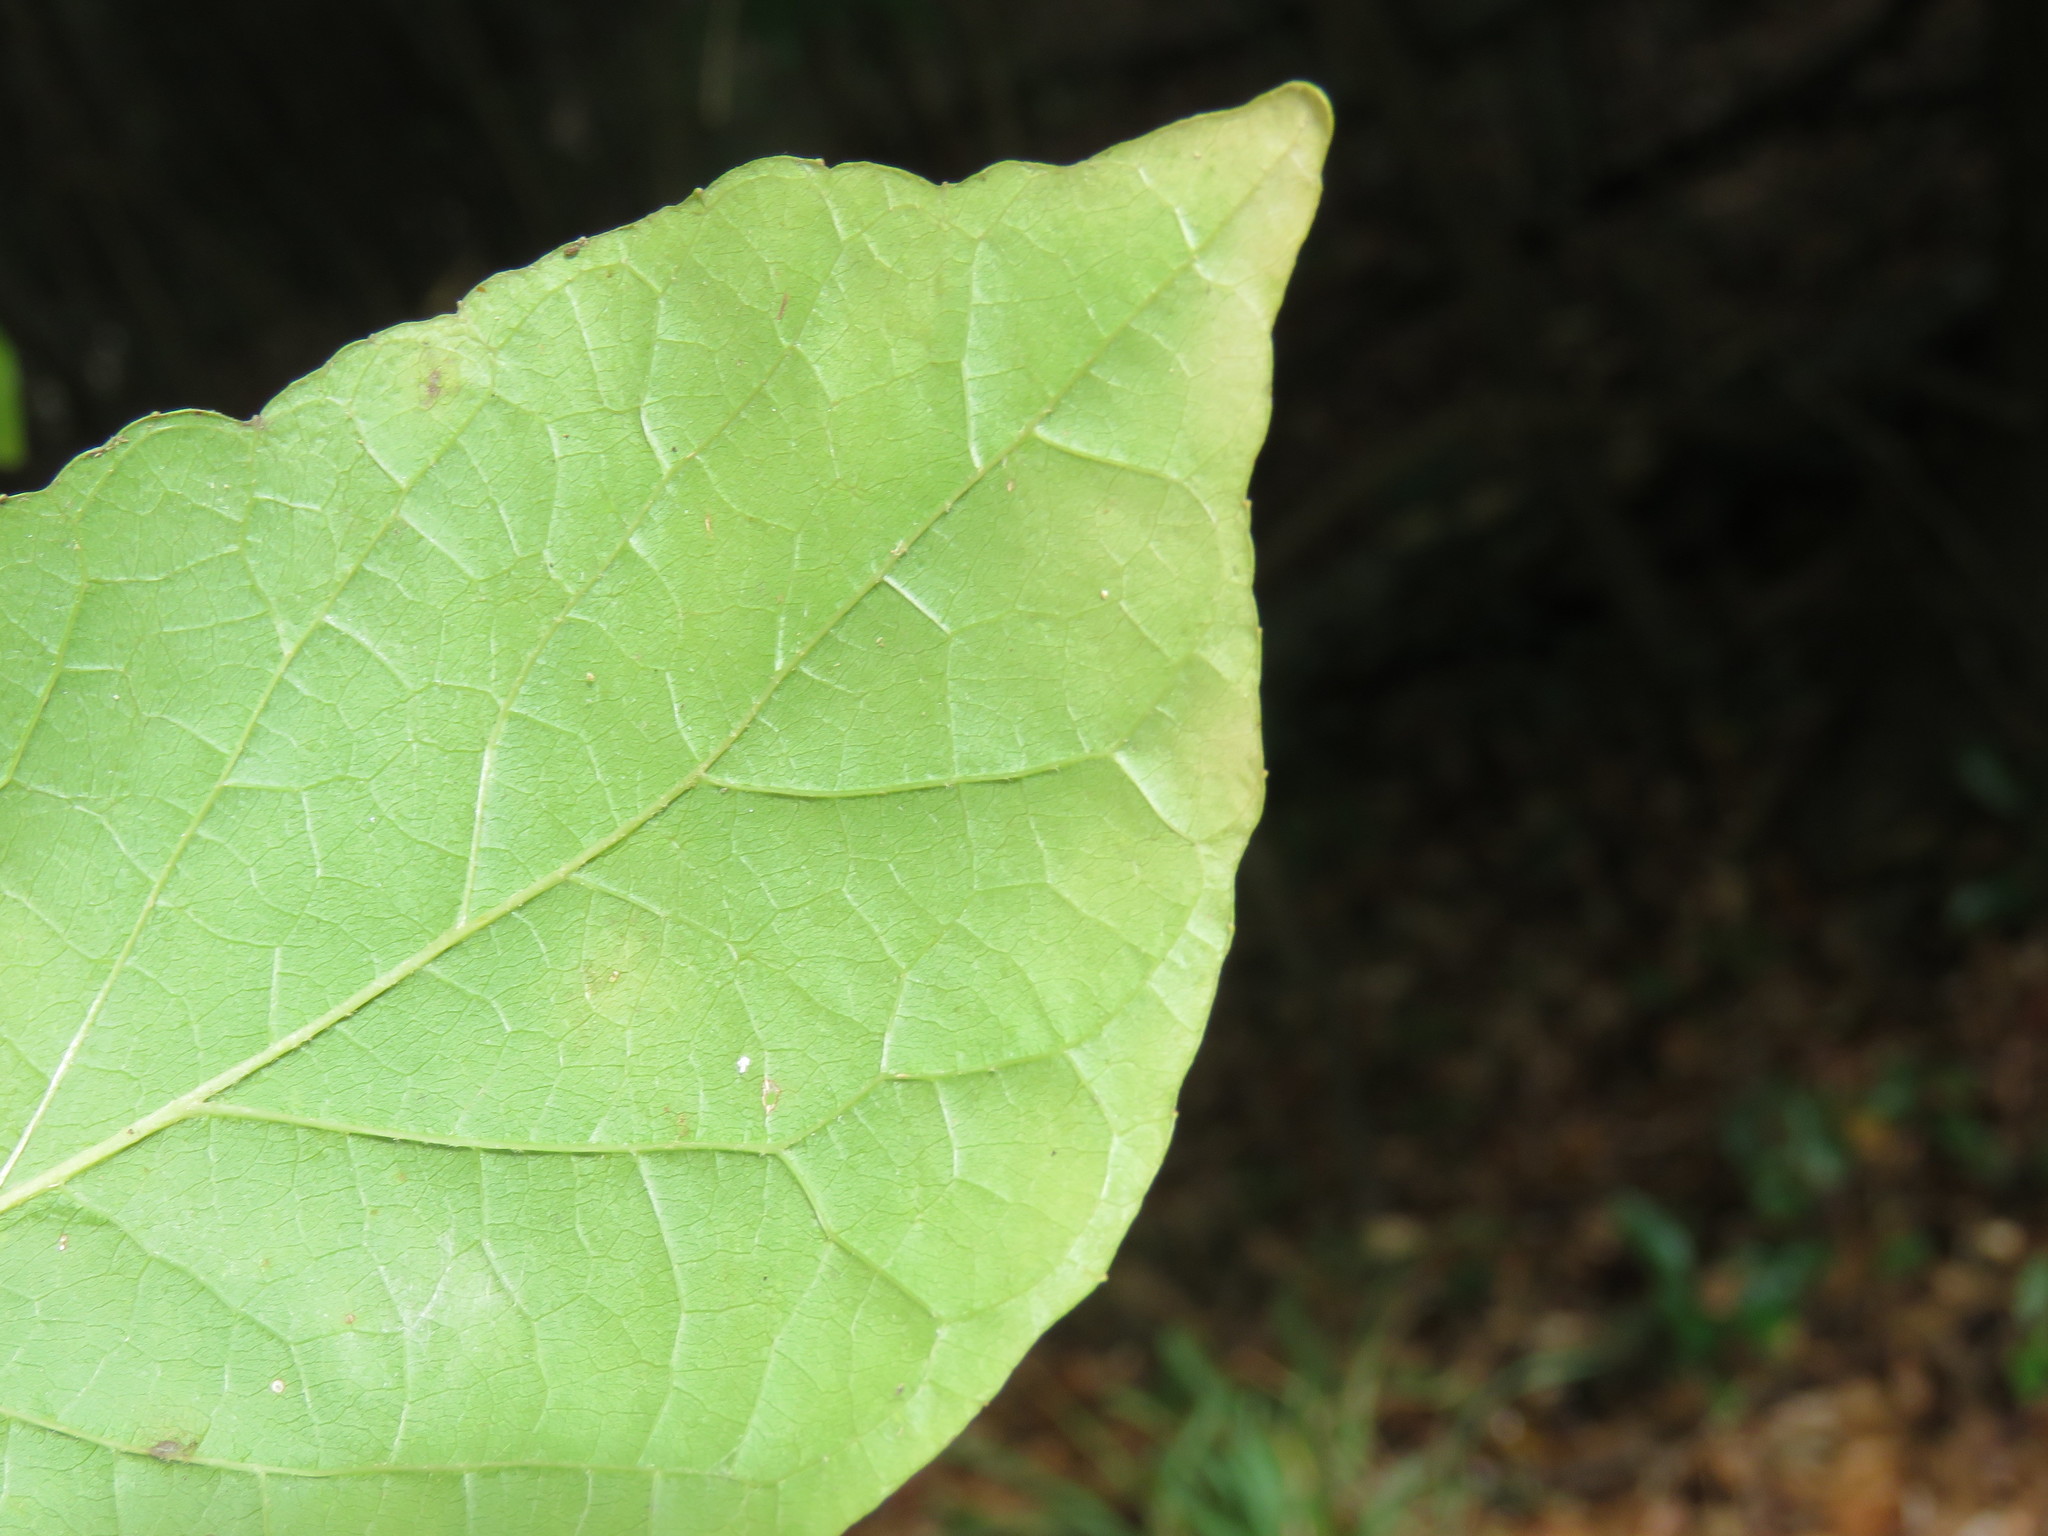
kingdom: Plantae
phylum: Tracheophyta
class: Magnoliopsida
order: Rosales
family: Moraceae
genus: Morus
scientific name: Morus alba
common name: White mulberry
